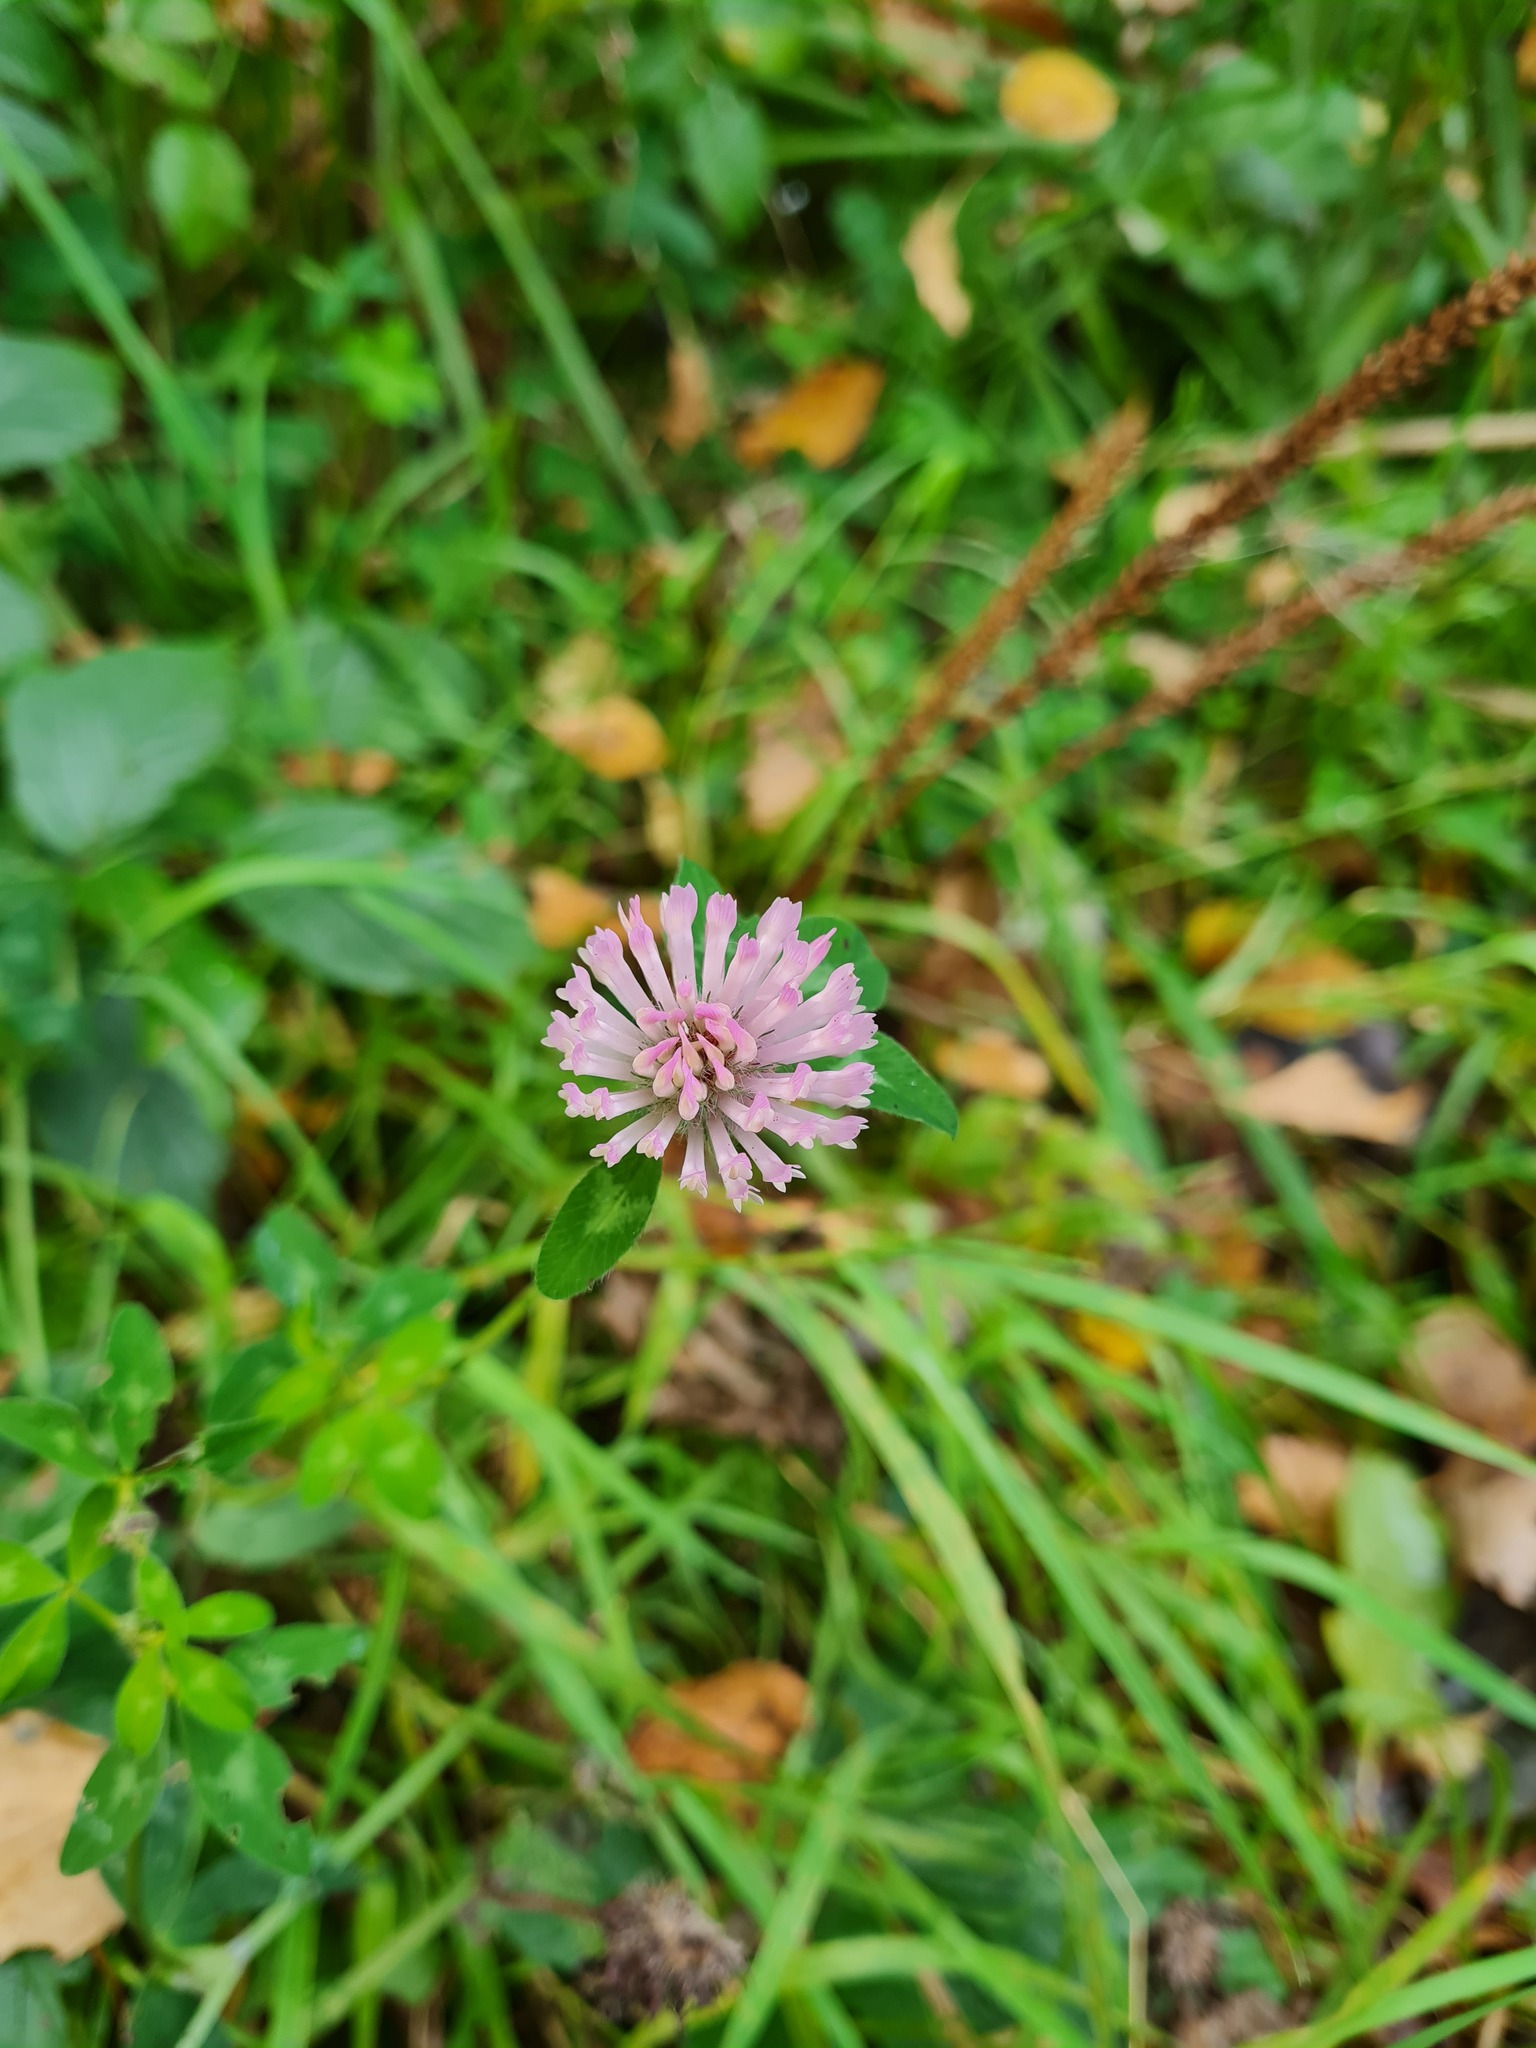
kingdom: Plantae
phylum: Tracheophyta
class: Magnoliopsida
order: Fabales
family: Fabaceae
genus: Trifolium
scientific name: Trifolium pratense
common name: Red clover
